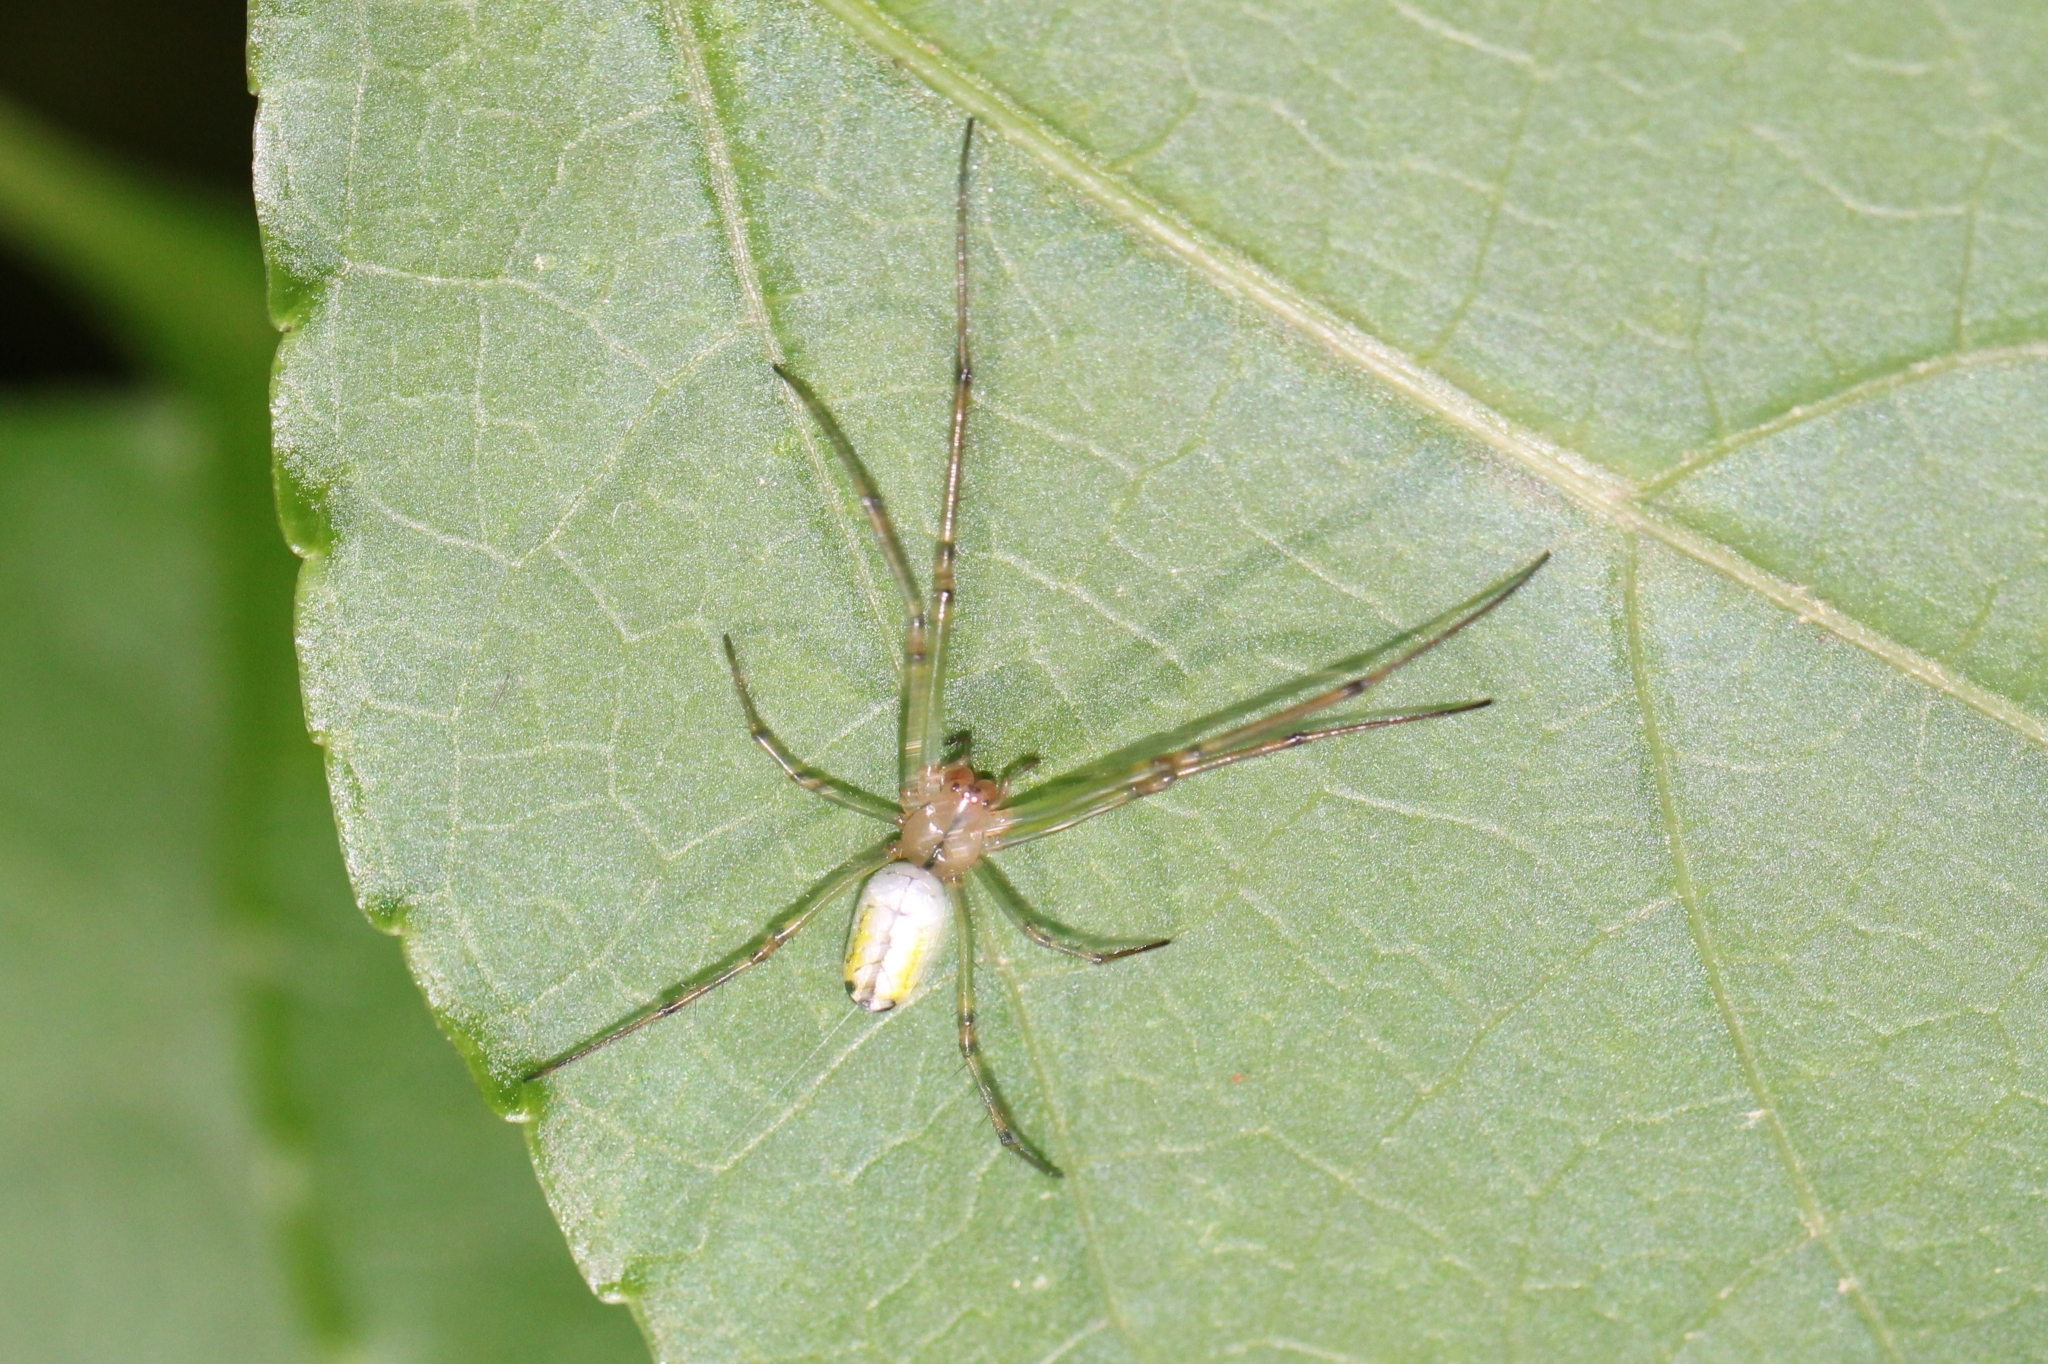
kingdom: Animalia
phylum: Arthropoda
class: Arachnida
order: Araneae
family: Tetragnathidae
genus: Leucauge
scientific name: Leucauge venusta
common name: Longjawed orb weavers
